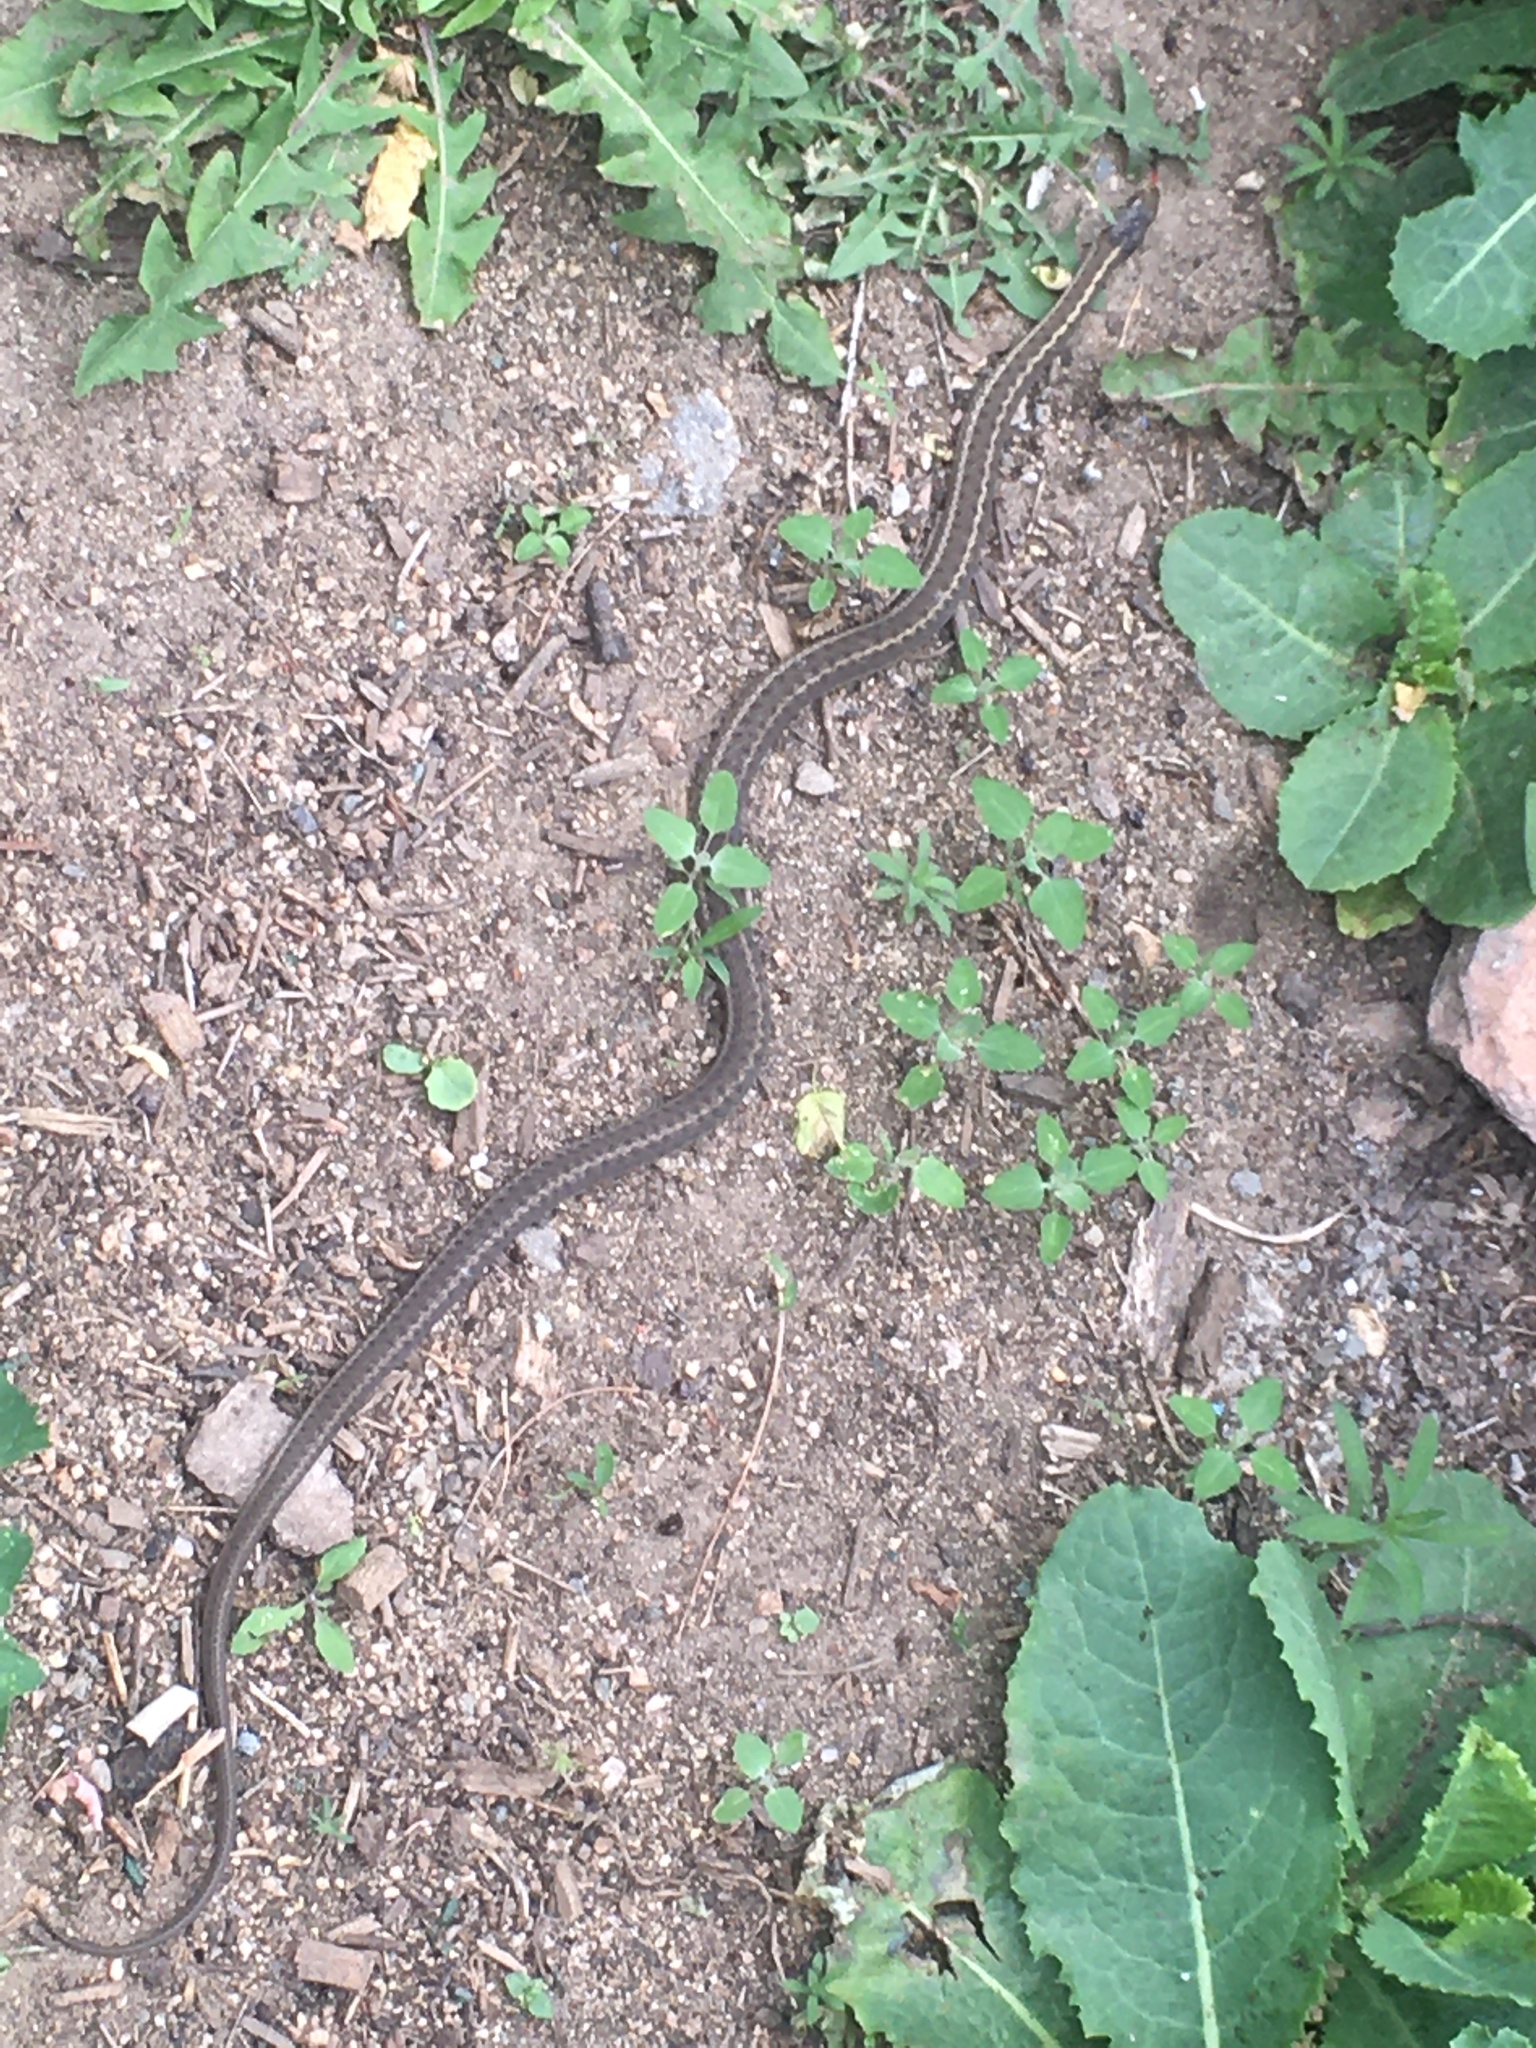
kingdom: Animalia
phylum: Chordata
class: Squamata
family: Colubridae
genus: Thamnophis
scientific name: Thamnophis elegans
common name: Western terrestrial garter snake
